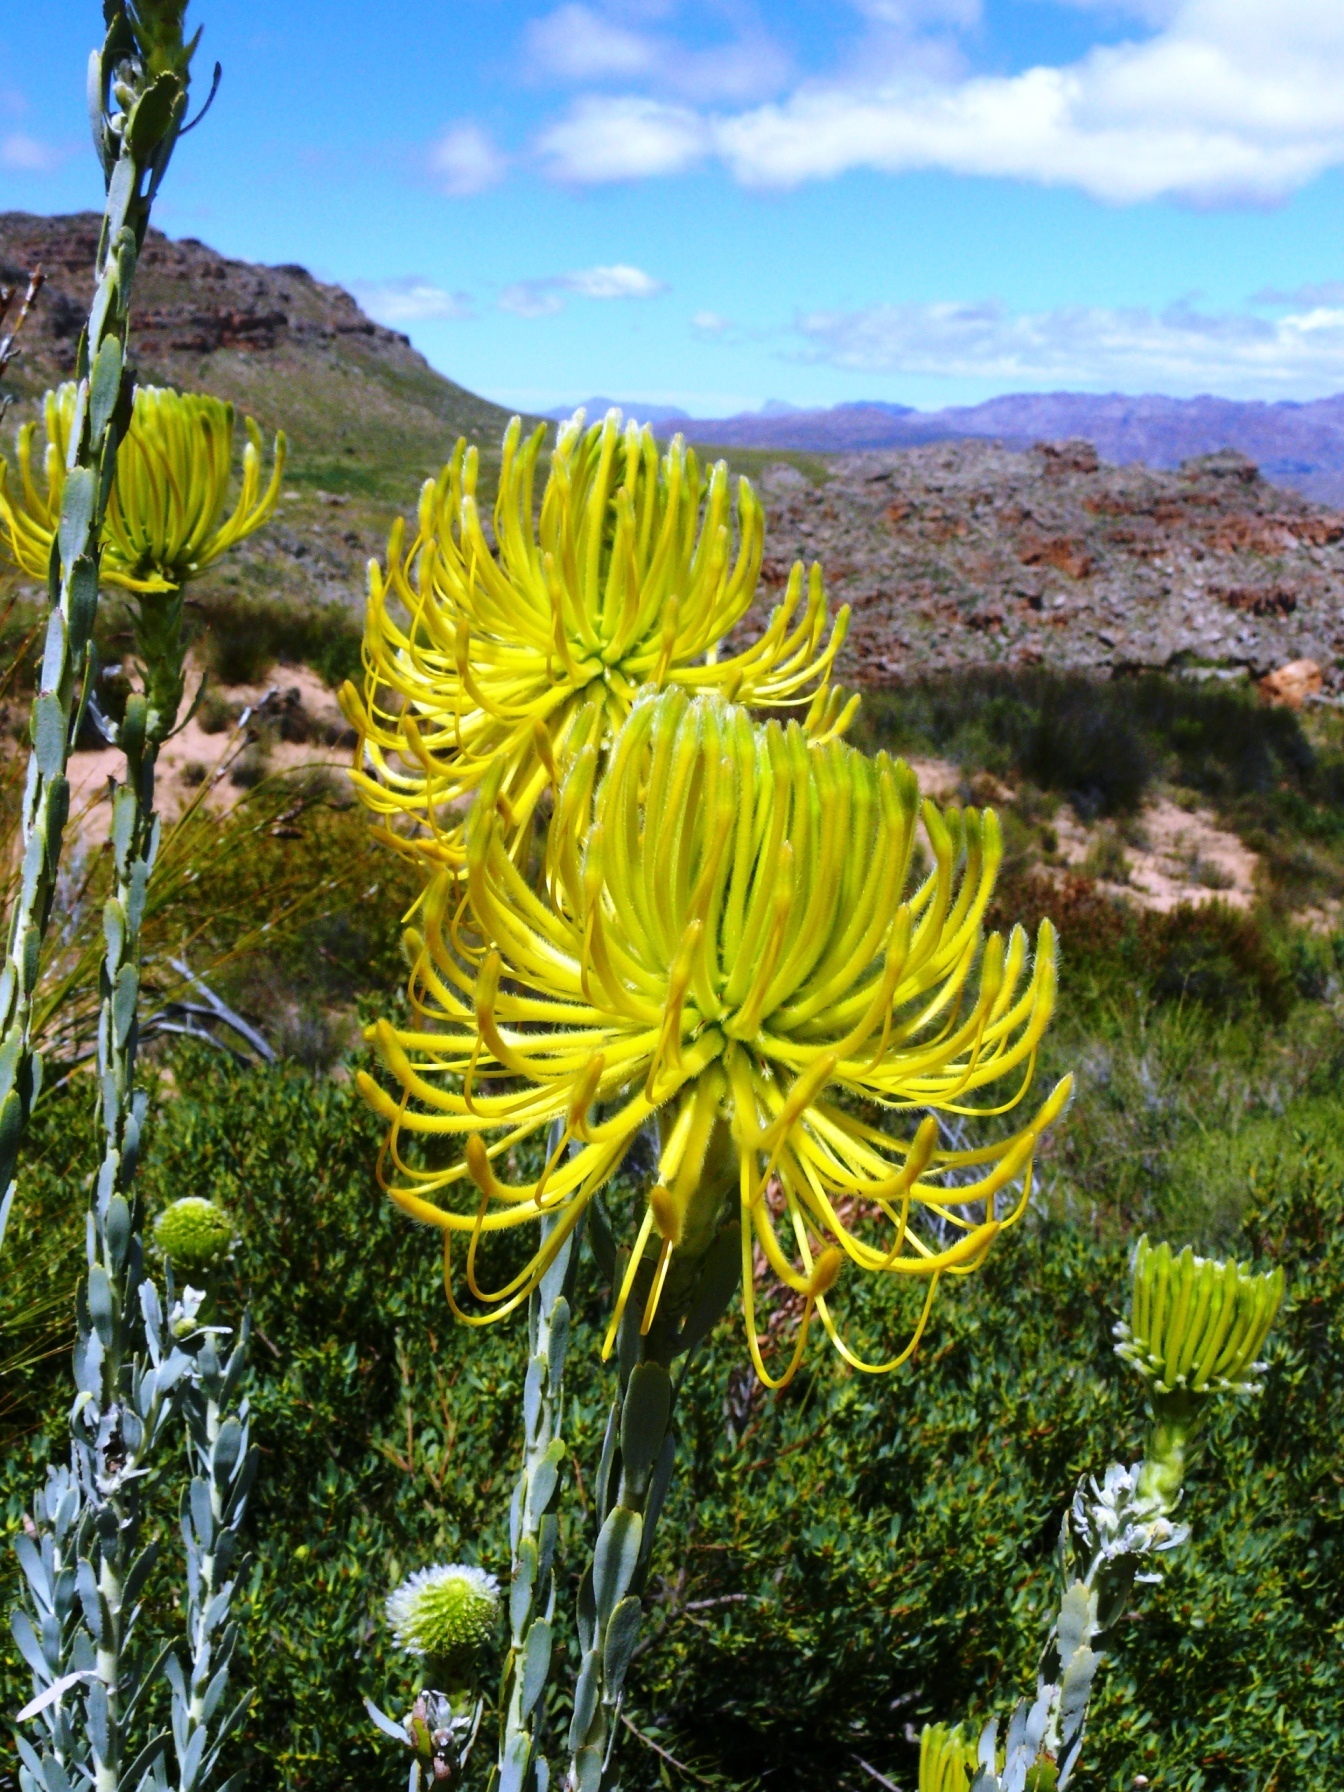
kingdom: Plantae
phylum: Tracheophyta
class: Magnoliopsida
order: Proteales
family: Proteaceae
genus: Leucospermum
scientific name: Leucospermum reflexum
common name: Rocket pincushion
